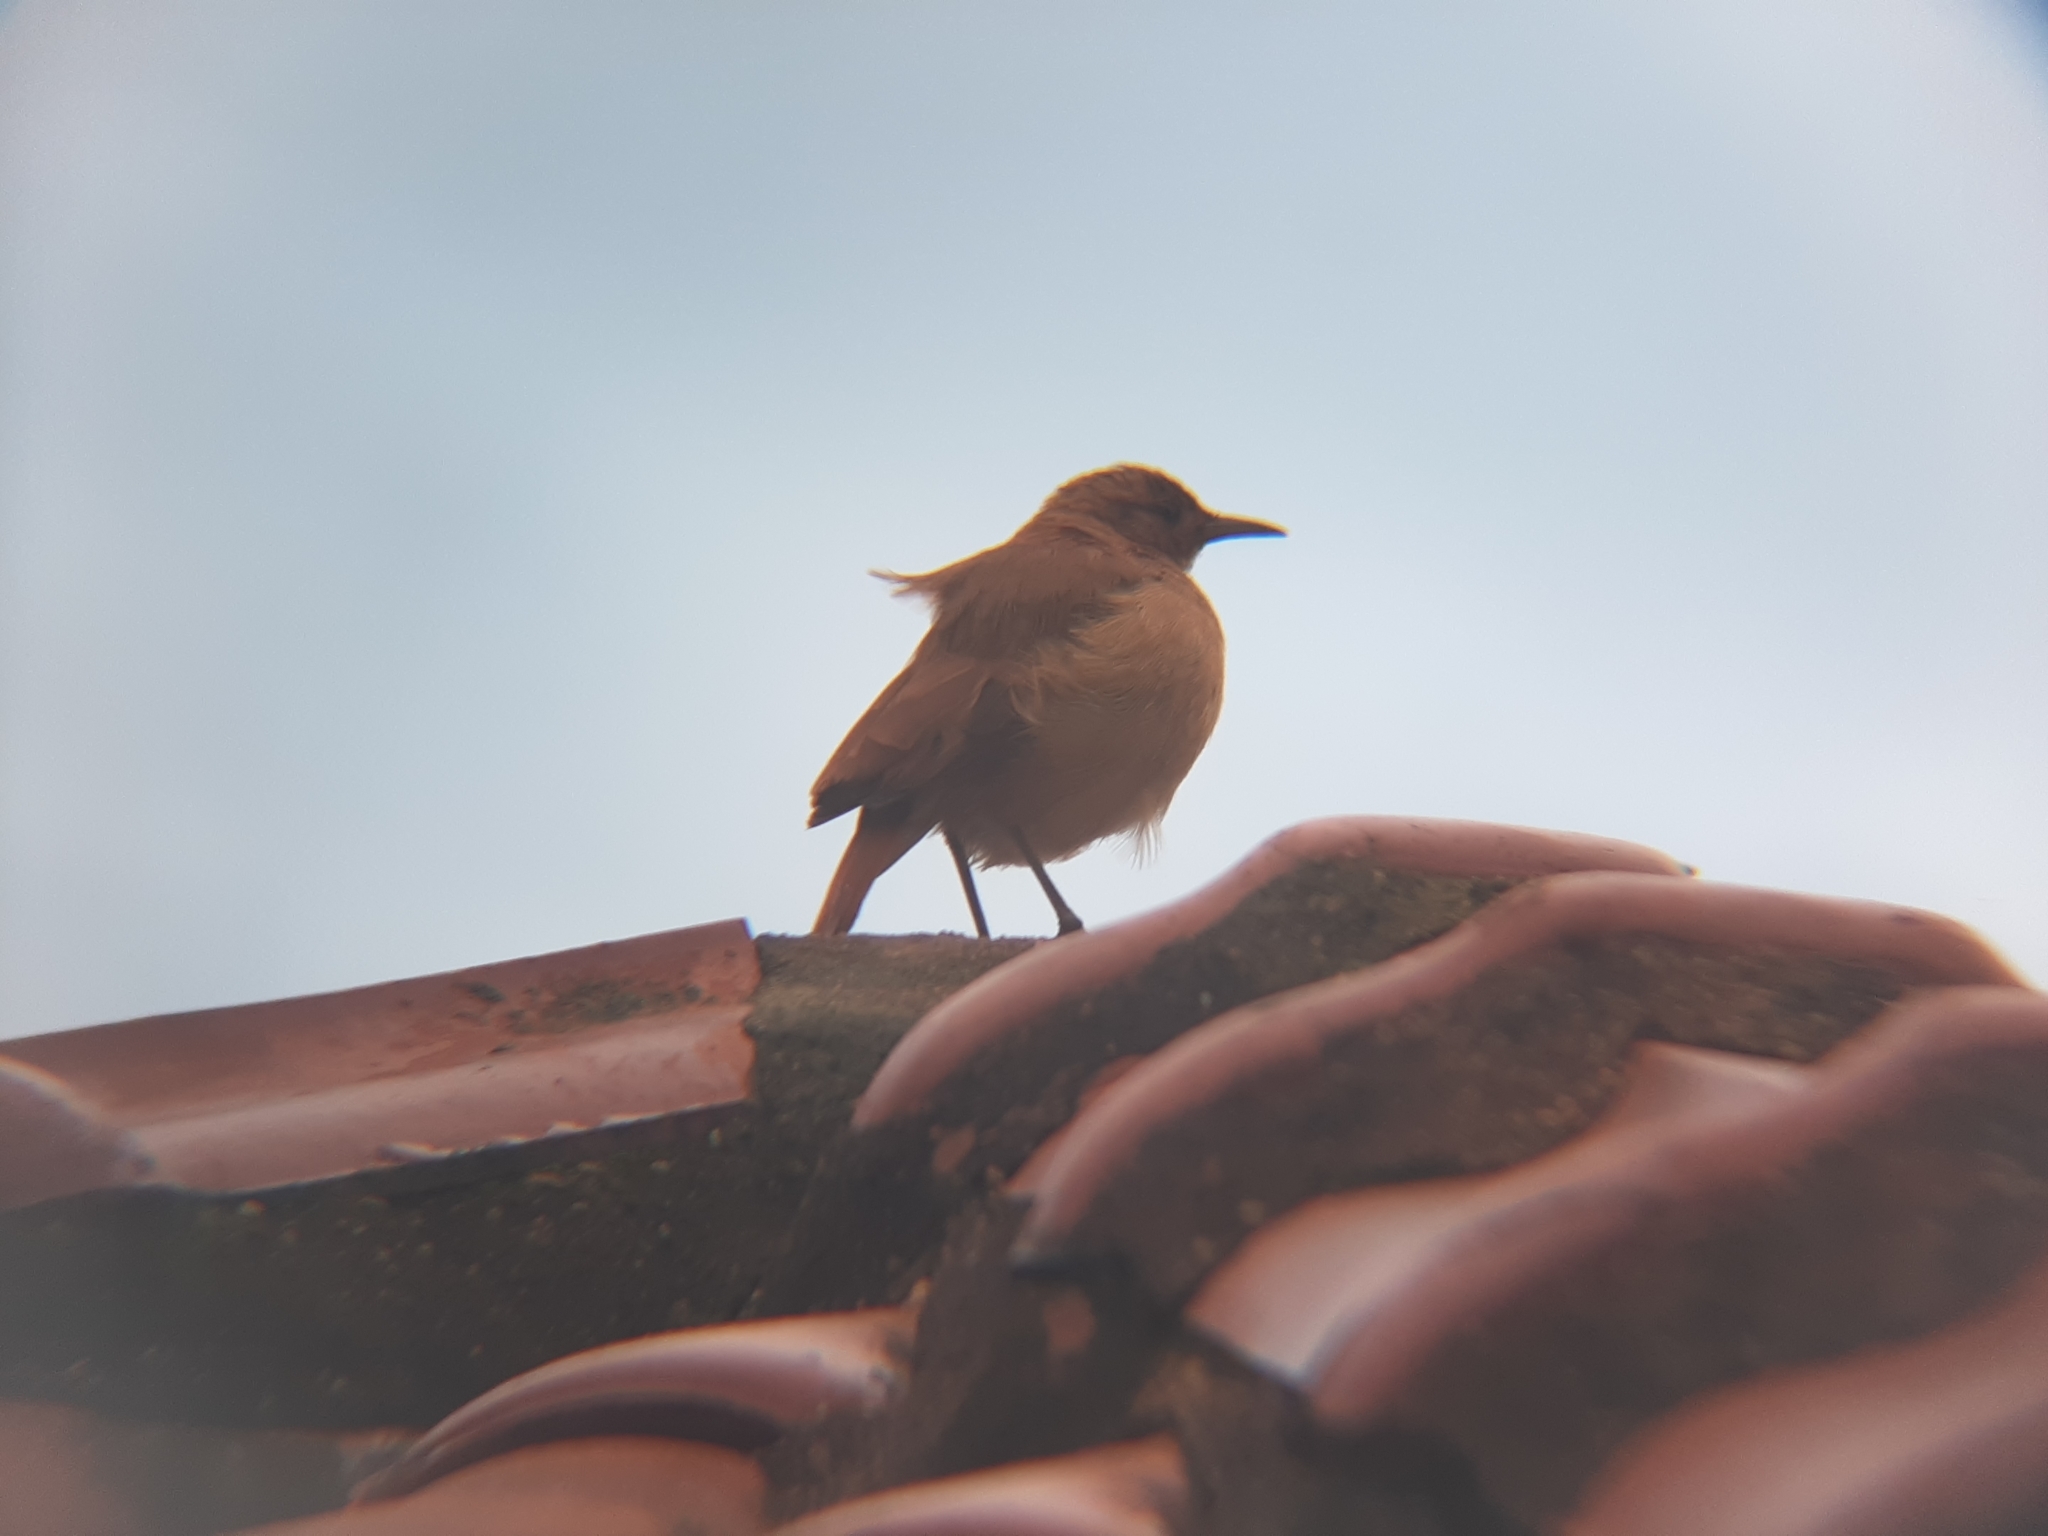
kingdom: Animalia
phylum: Chordata
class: Aves
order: Passeriformes
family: Furnariidae
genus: Furnarius
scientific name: Furnarius rufus
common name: Rufous hornero
